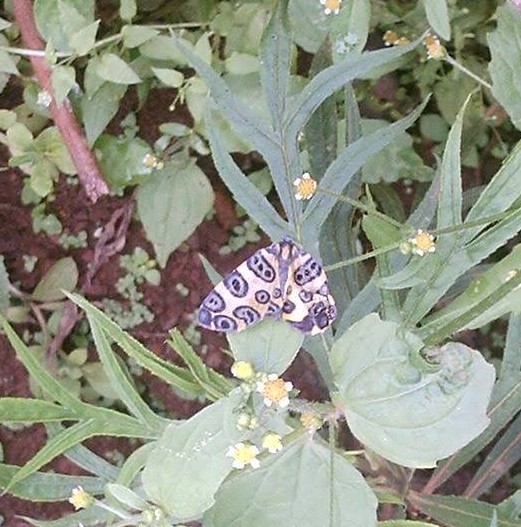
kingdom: Animalia
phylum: Arthropoda
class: Insecta
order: Lepidoptera
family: Geometridae
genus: Pantherodes
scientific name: Pantherodes pardalaria
